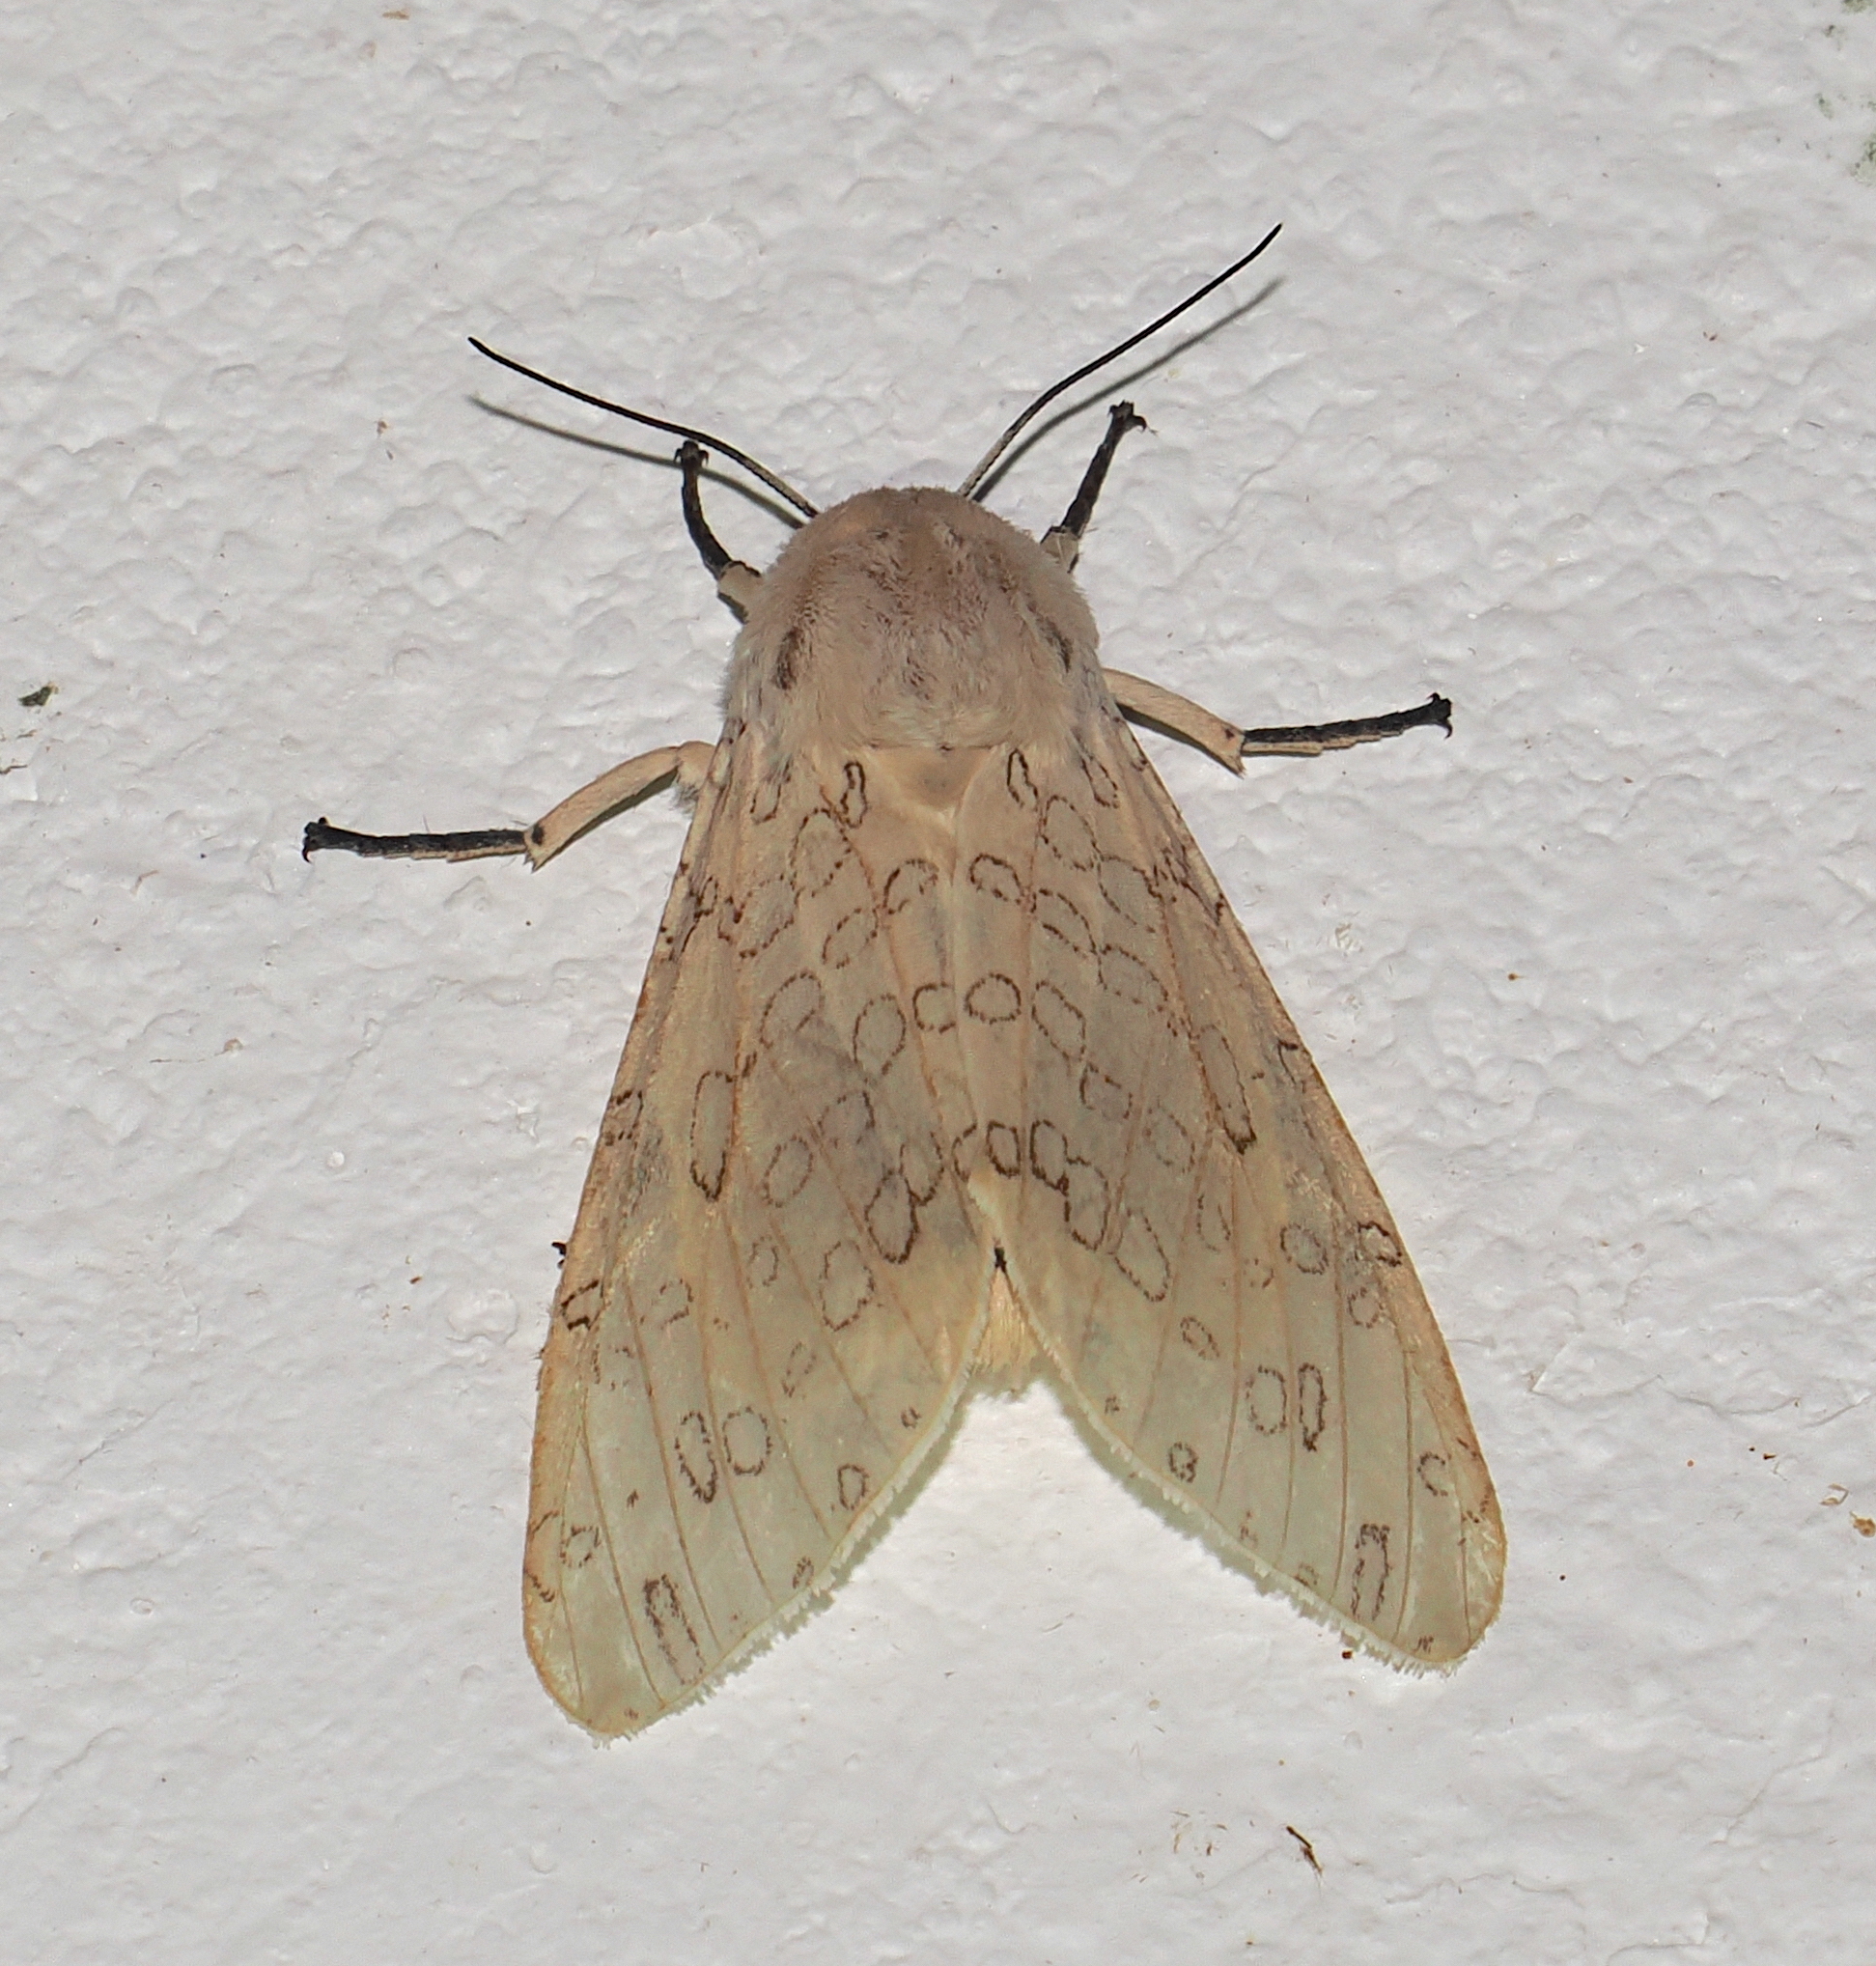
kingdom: Animalia
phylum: Arthropoda
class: Insecta
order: Lepidoptera
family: Erebidae
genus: Hypercompe
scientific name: Hypercompe muzina
